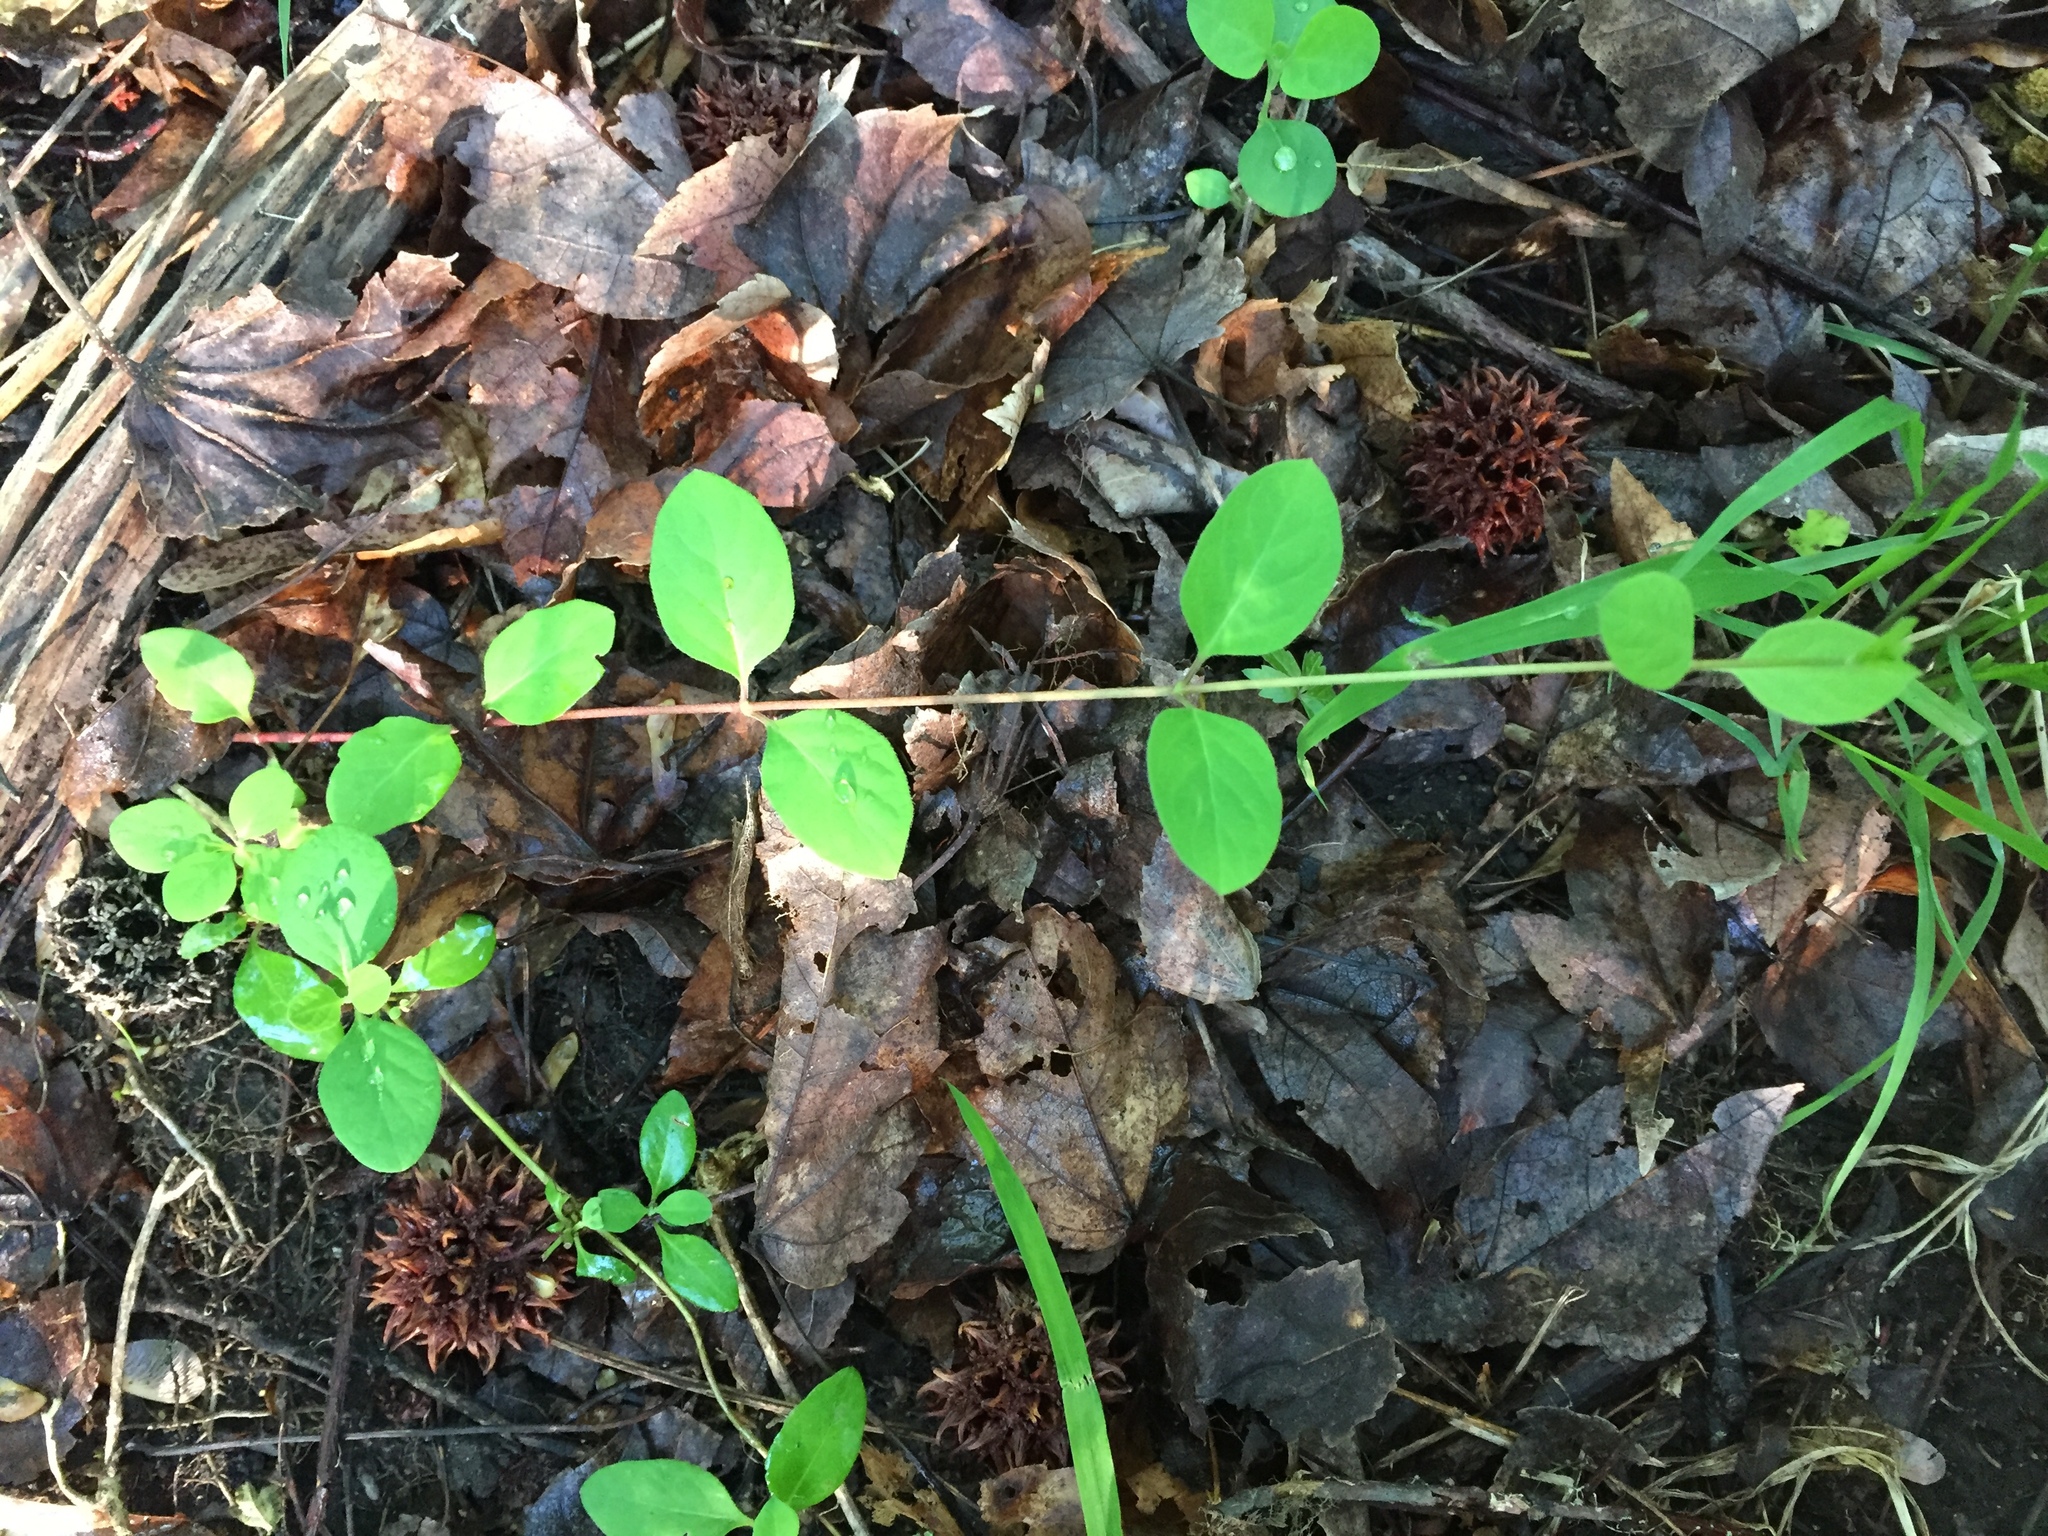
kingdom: Plantae
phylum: Tracheophyta
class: Magnoliopsida
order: Dipsacales
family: Caprifoliaceae
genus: Lonicera
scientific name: Lonicera japonica
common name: Japanese honeysuckle
